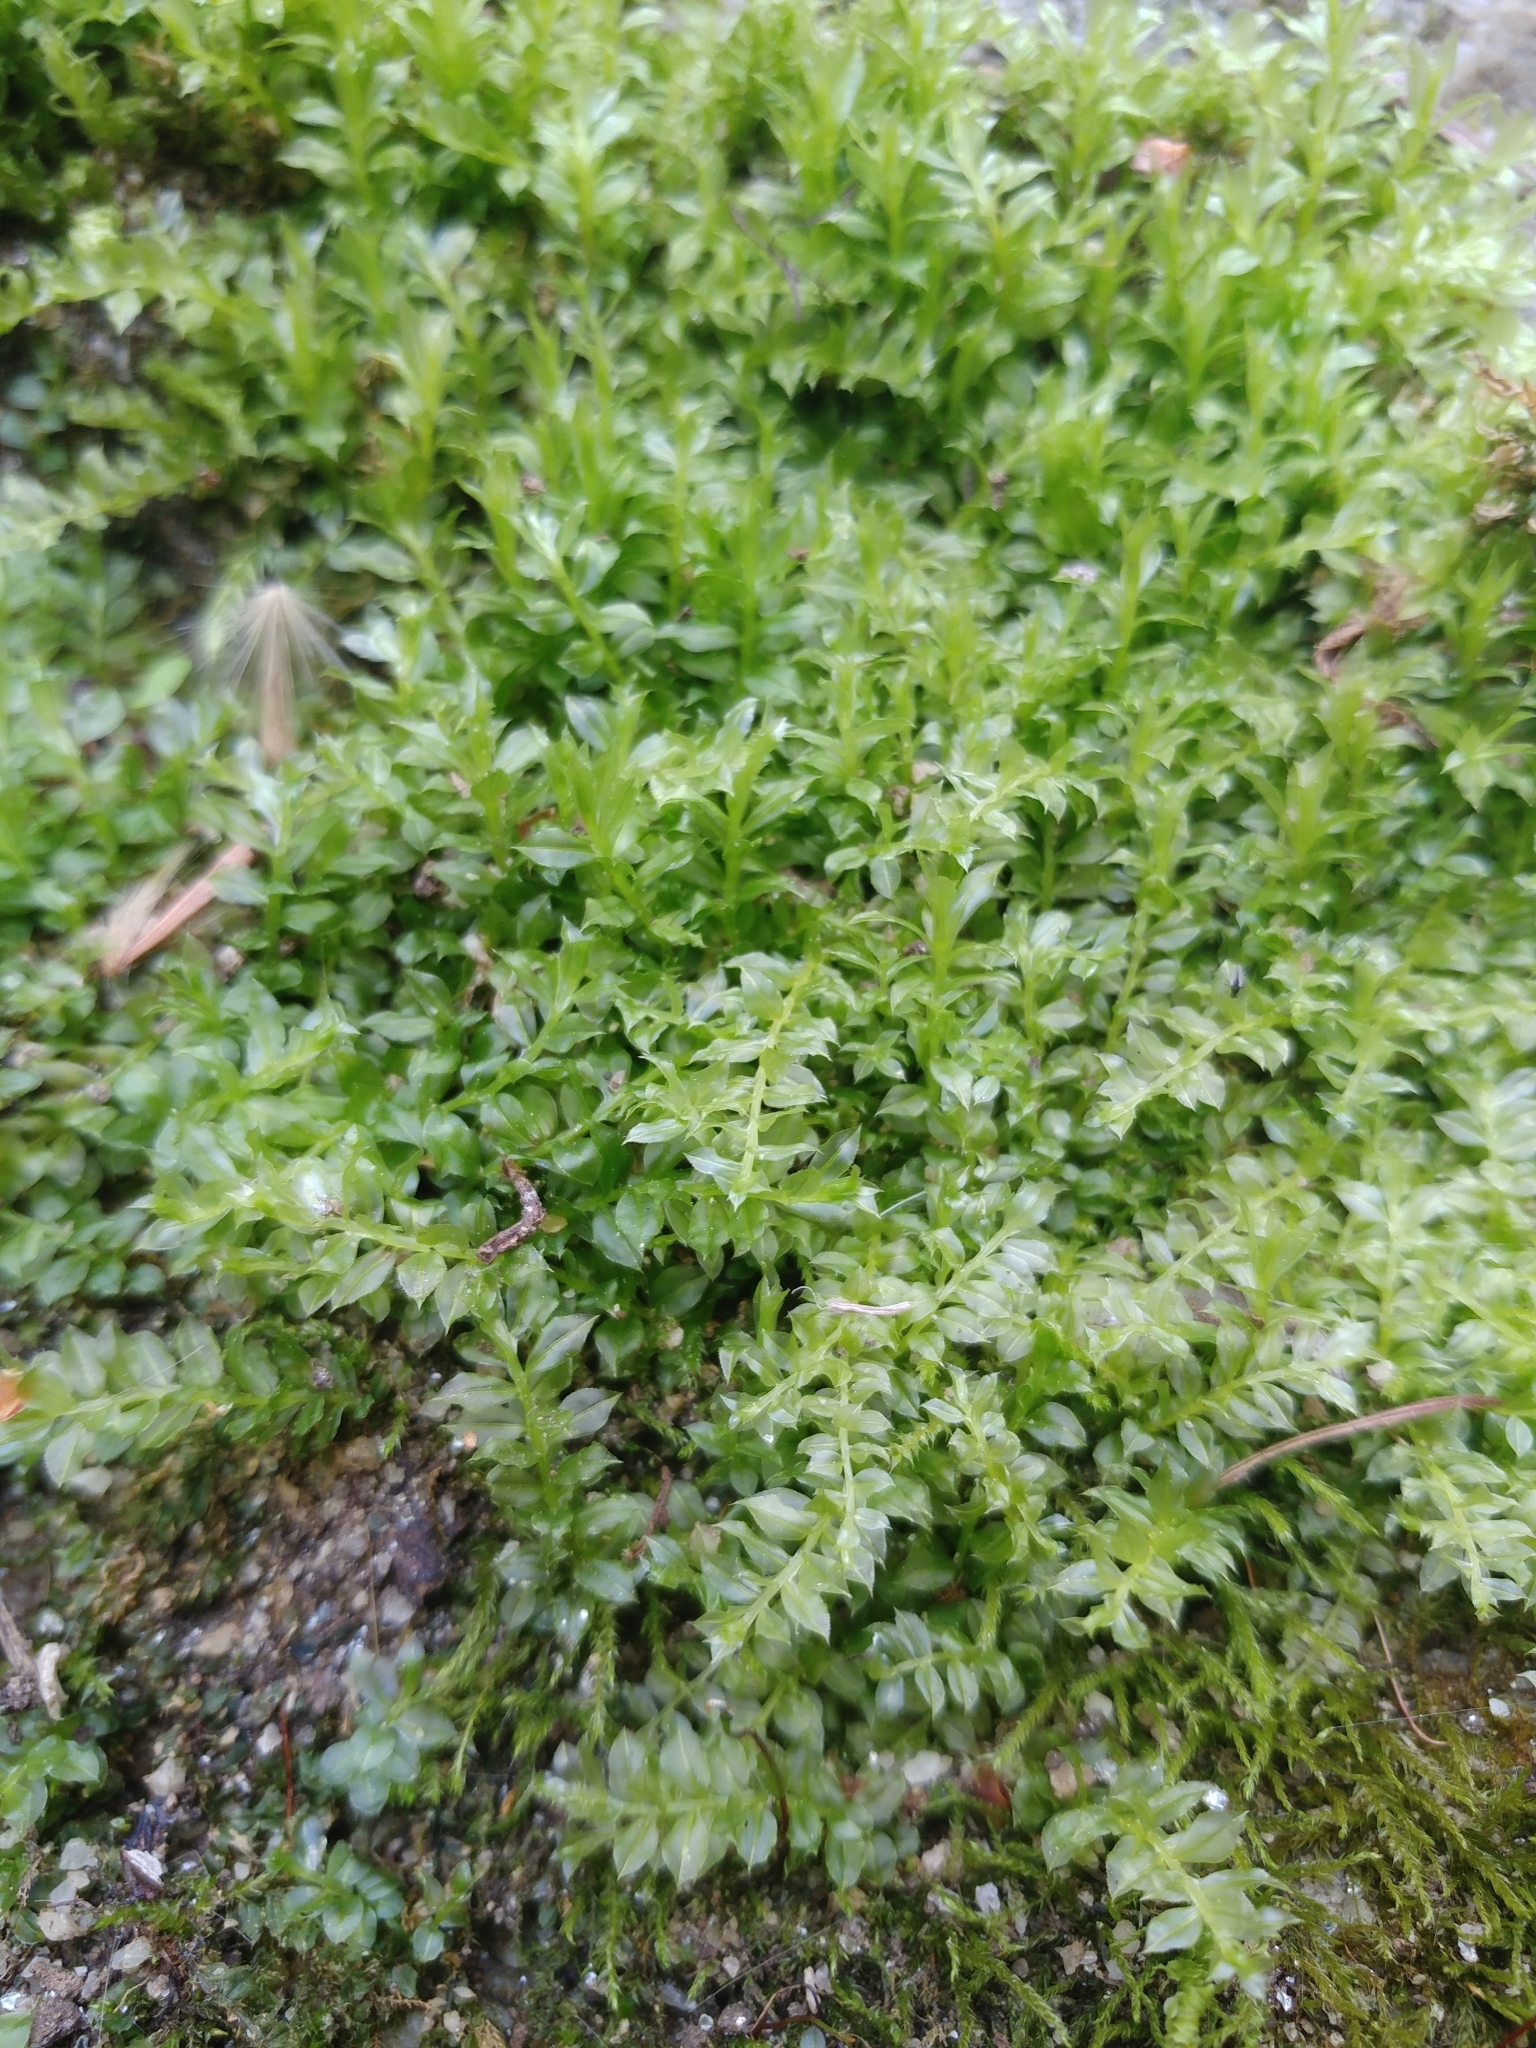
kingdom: Plantae
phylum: Bryophyta
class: Bryopsida
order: Bryales
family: Mniaceae
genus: Plagiomnium
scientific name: Plagiomnium cuspidatum
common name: Woodsy leafy moss
